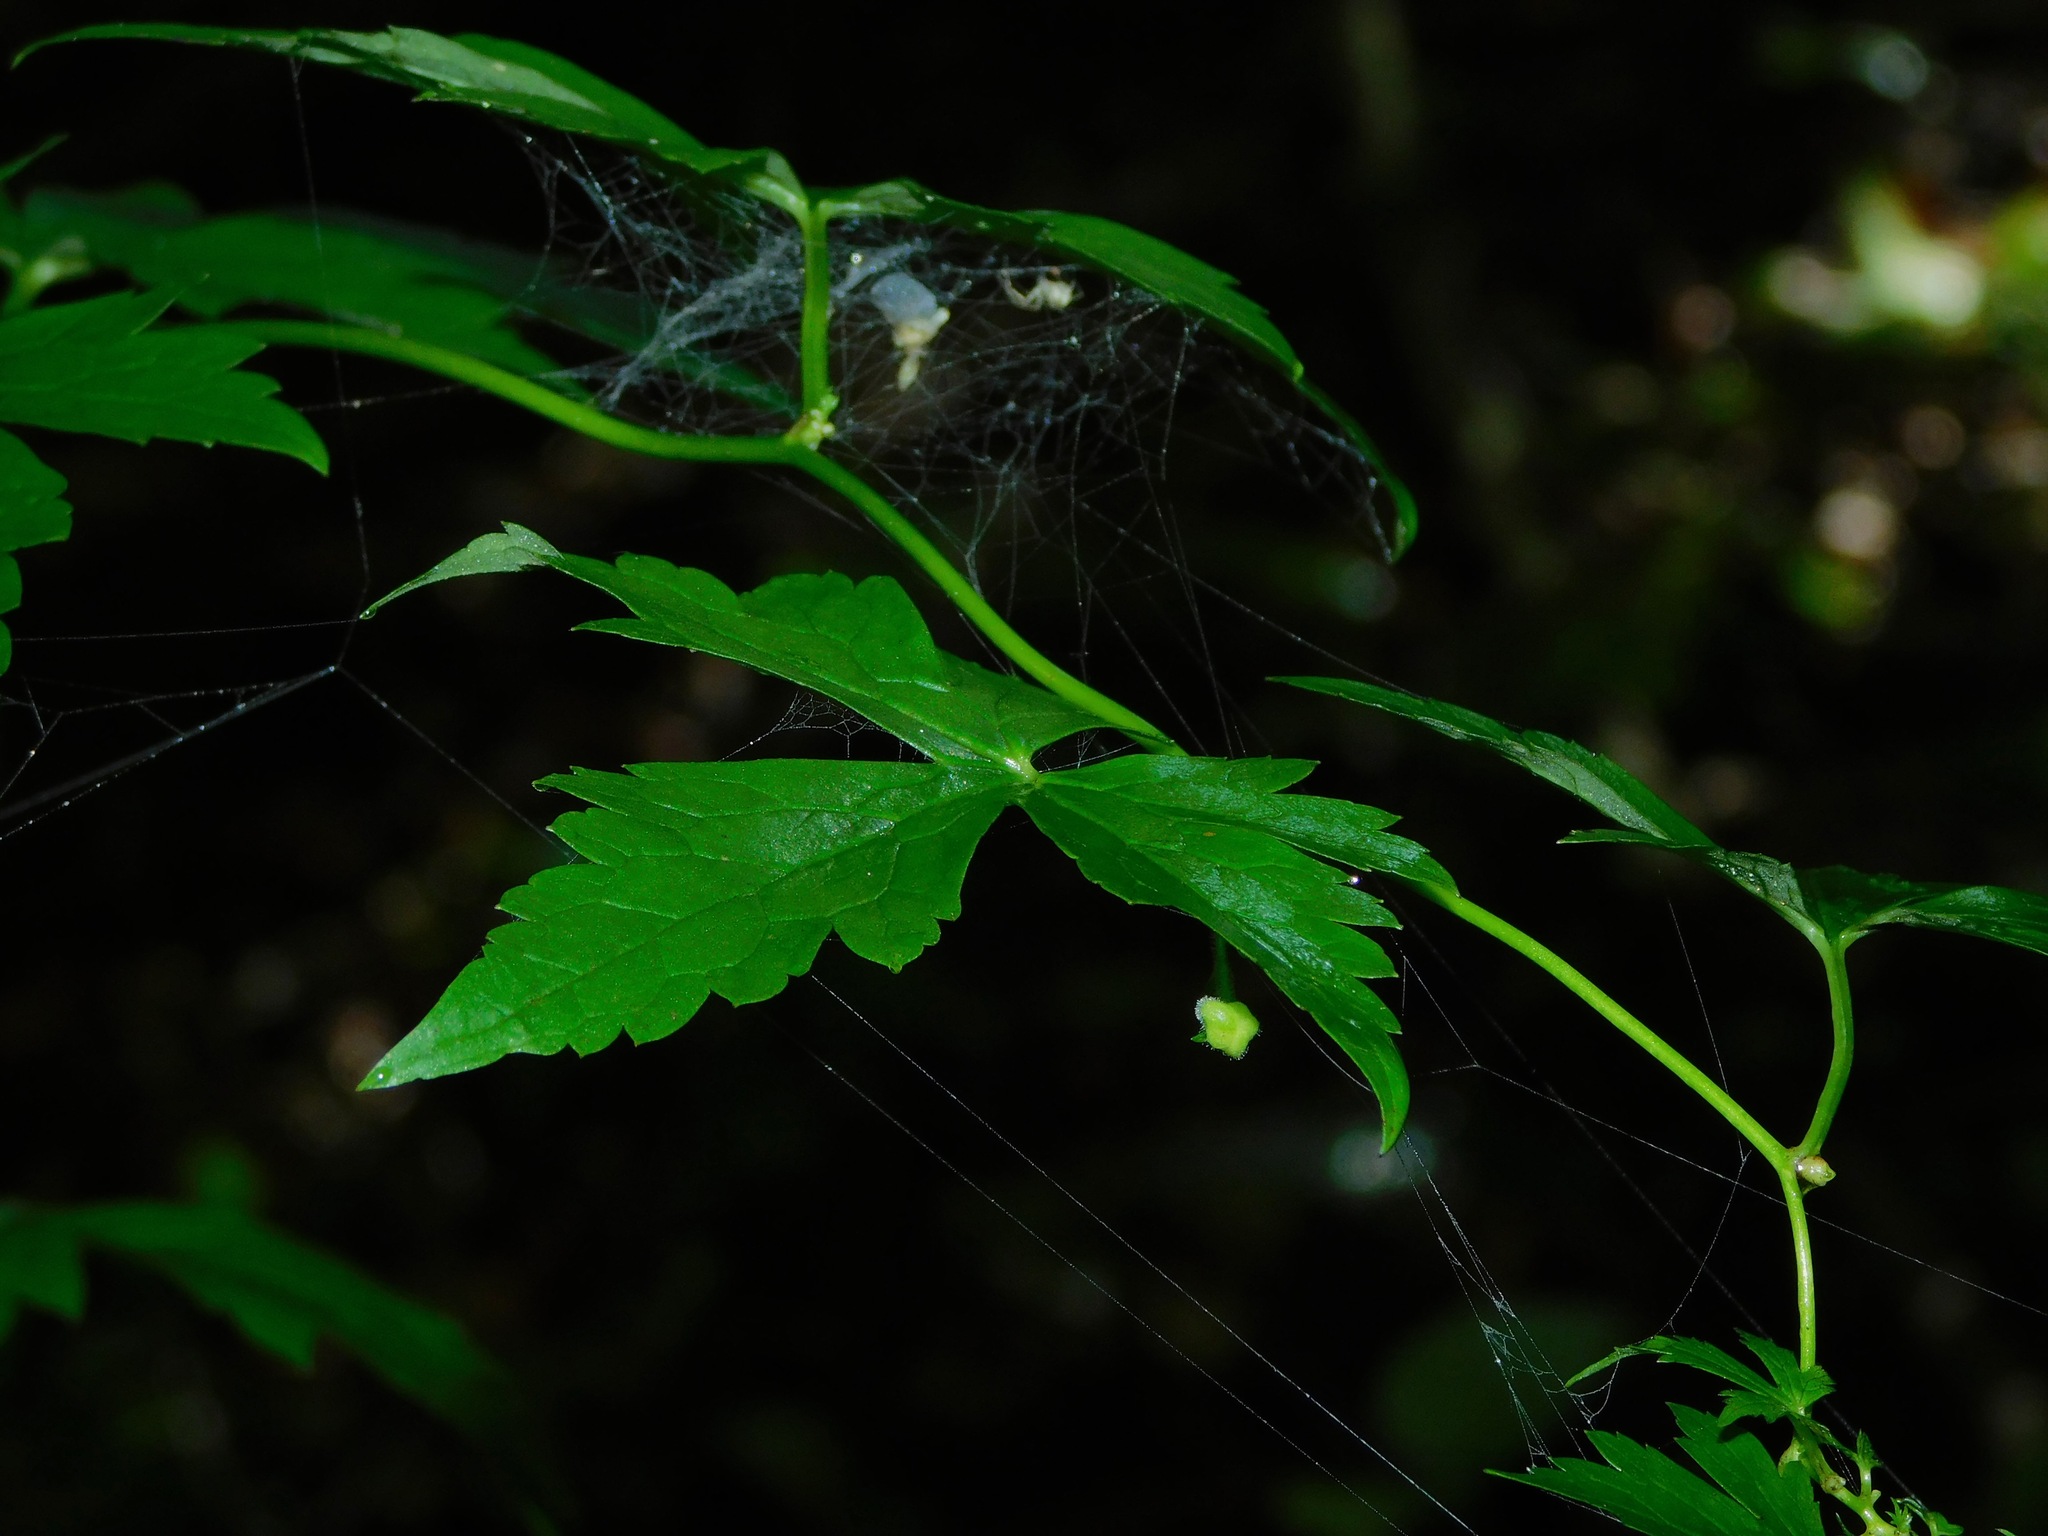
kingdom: Plantae
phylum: Tracheophyta
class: Magnoliopsida
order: Ranunculales
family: Ranunculaceae
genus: Aconitum
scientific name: Aconitum uncinatum
